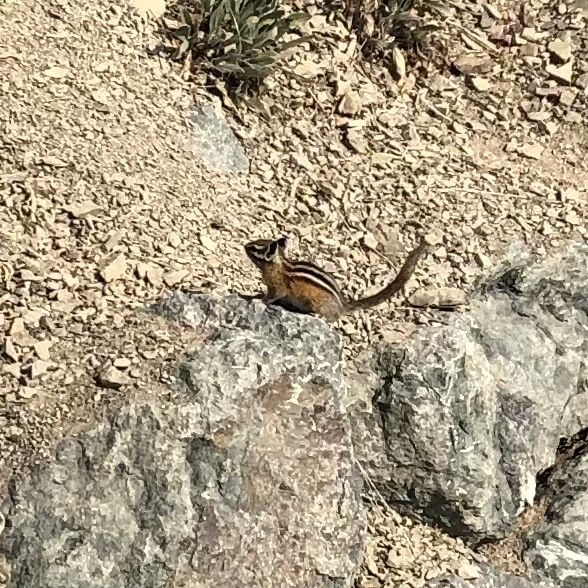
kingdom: Animalia
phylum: Chordata
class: Mammalia
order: Rodentia
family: Sciuridae
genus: Tamias
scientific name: Tamias amoenus
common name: Yellow-pine chipmunk
